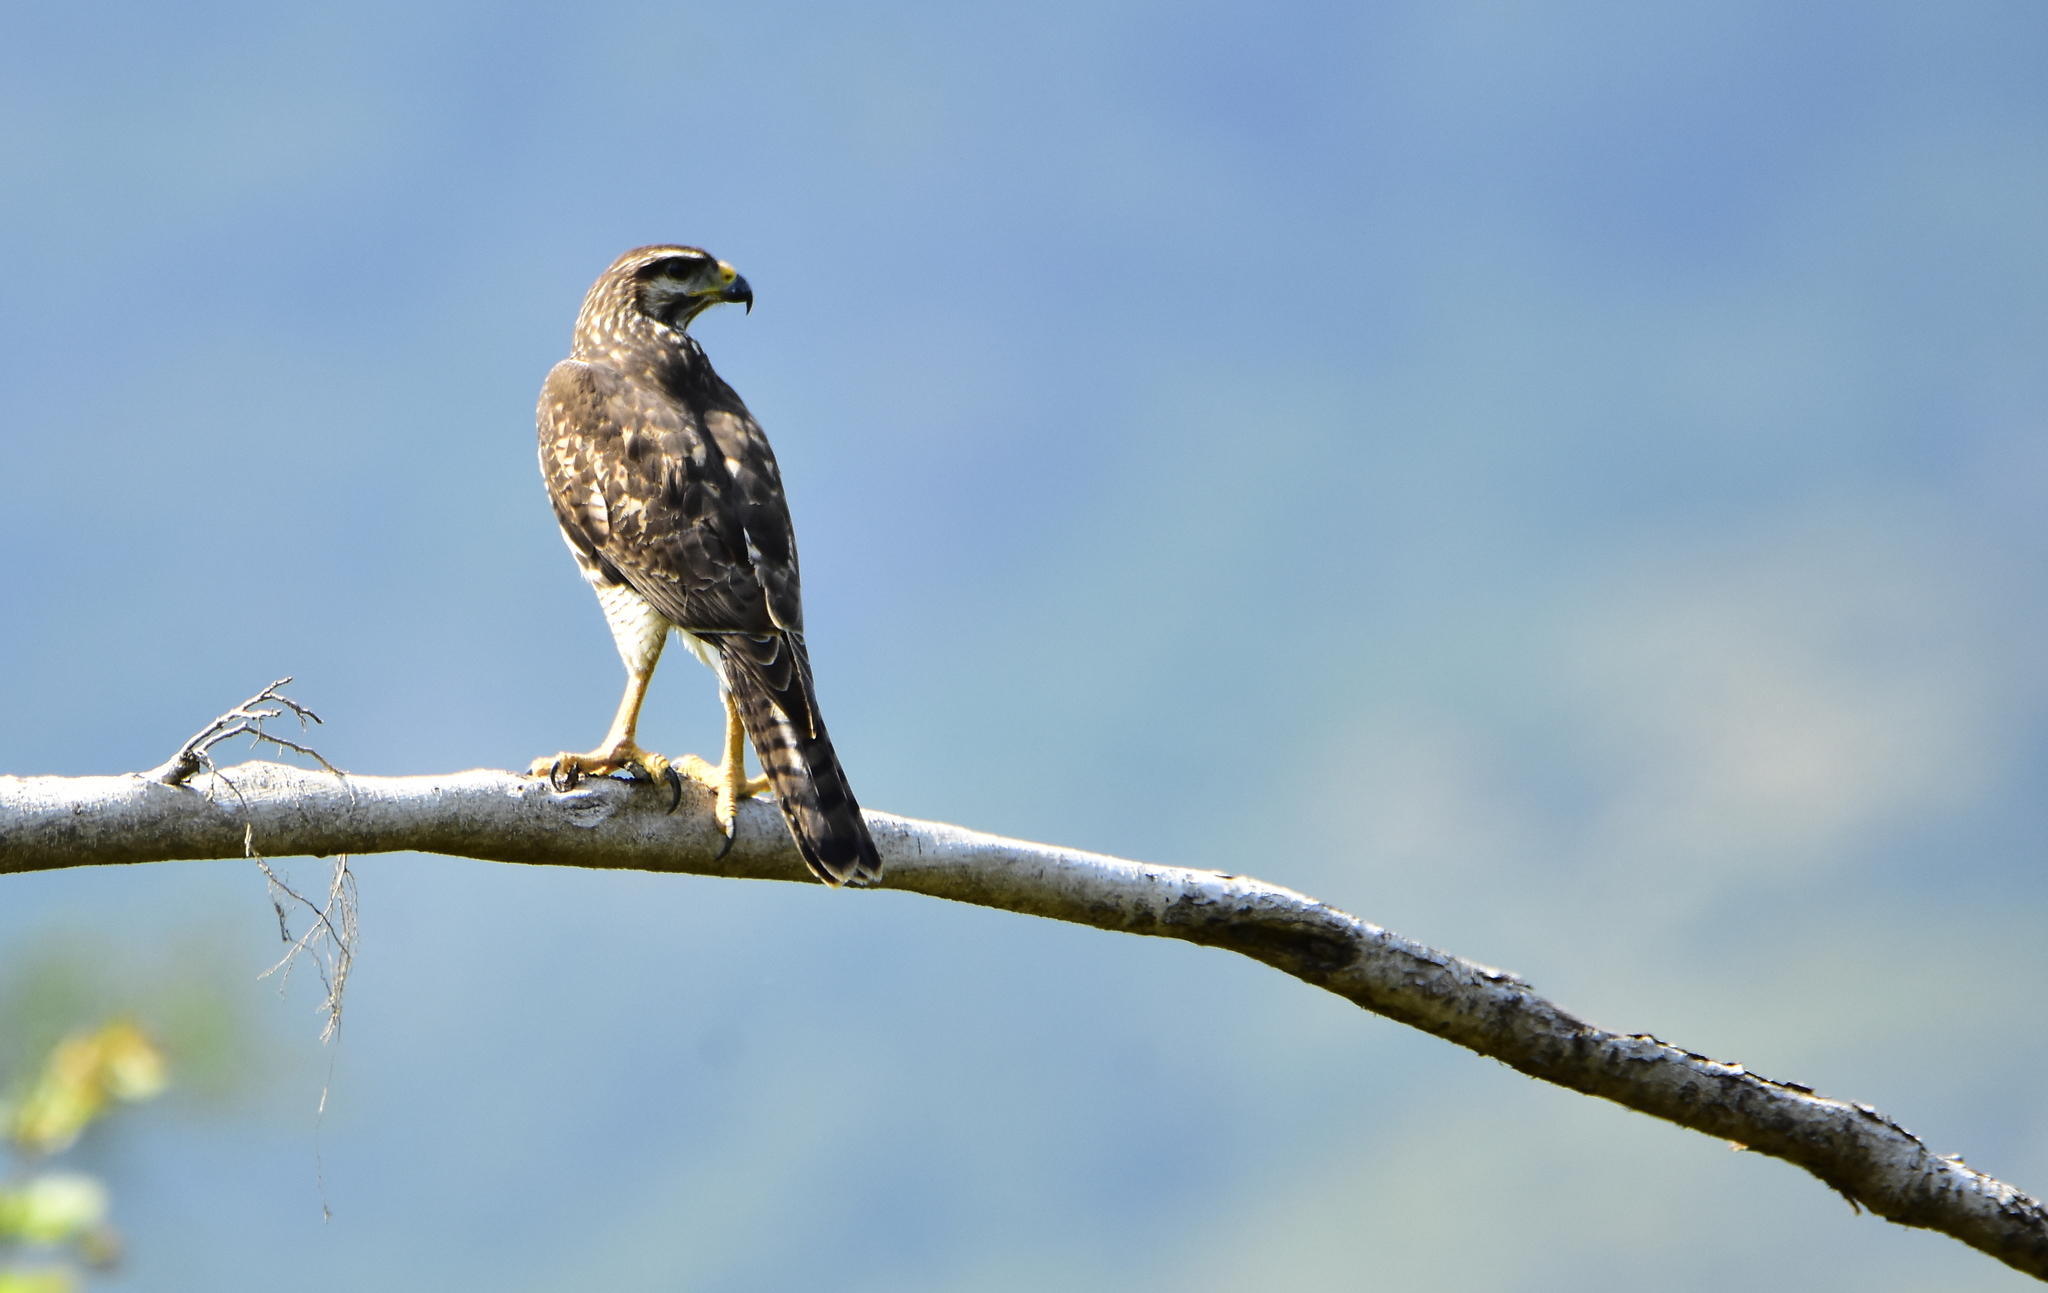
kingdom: Animalia
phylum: Chordata
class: Aves
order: Accipitriformes
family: Accipitridae
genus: Buteo
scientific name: Buteo nitidus
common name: Grey-lined hawk
